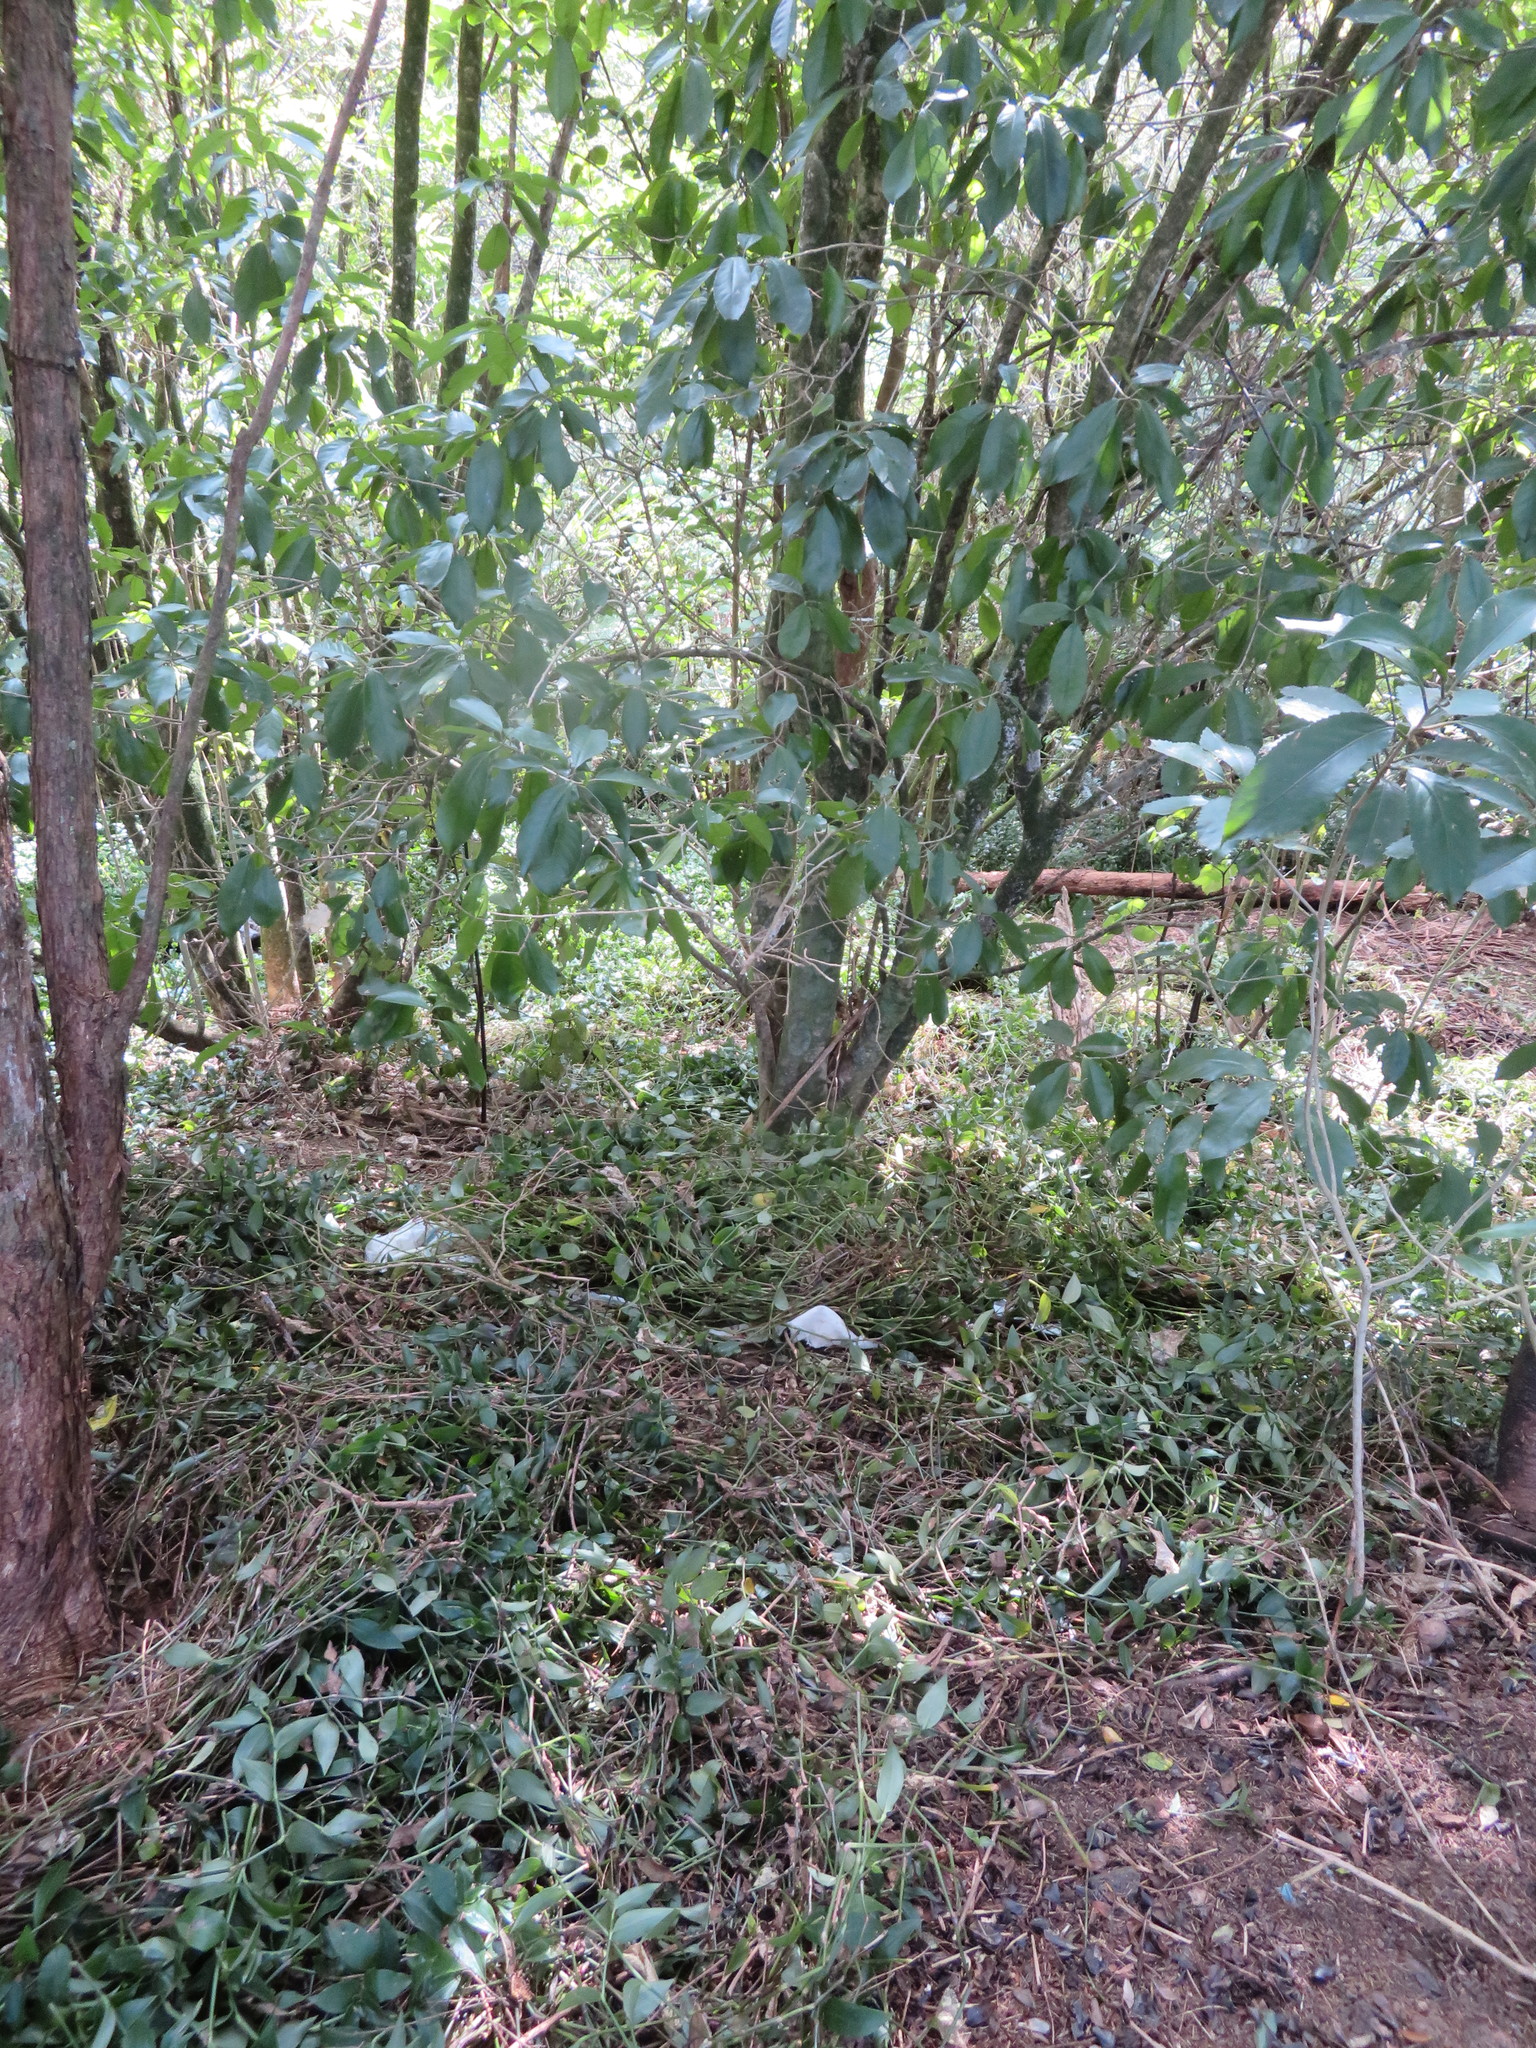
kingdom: Plantae
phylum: Tracheophyta
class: Liliopsida
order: Commelinales
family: Commelinaceae
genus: Tradescantia
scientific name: Tradescantia fluminensis
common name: Wandering-jew
